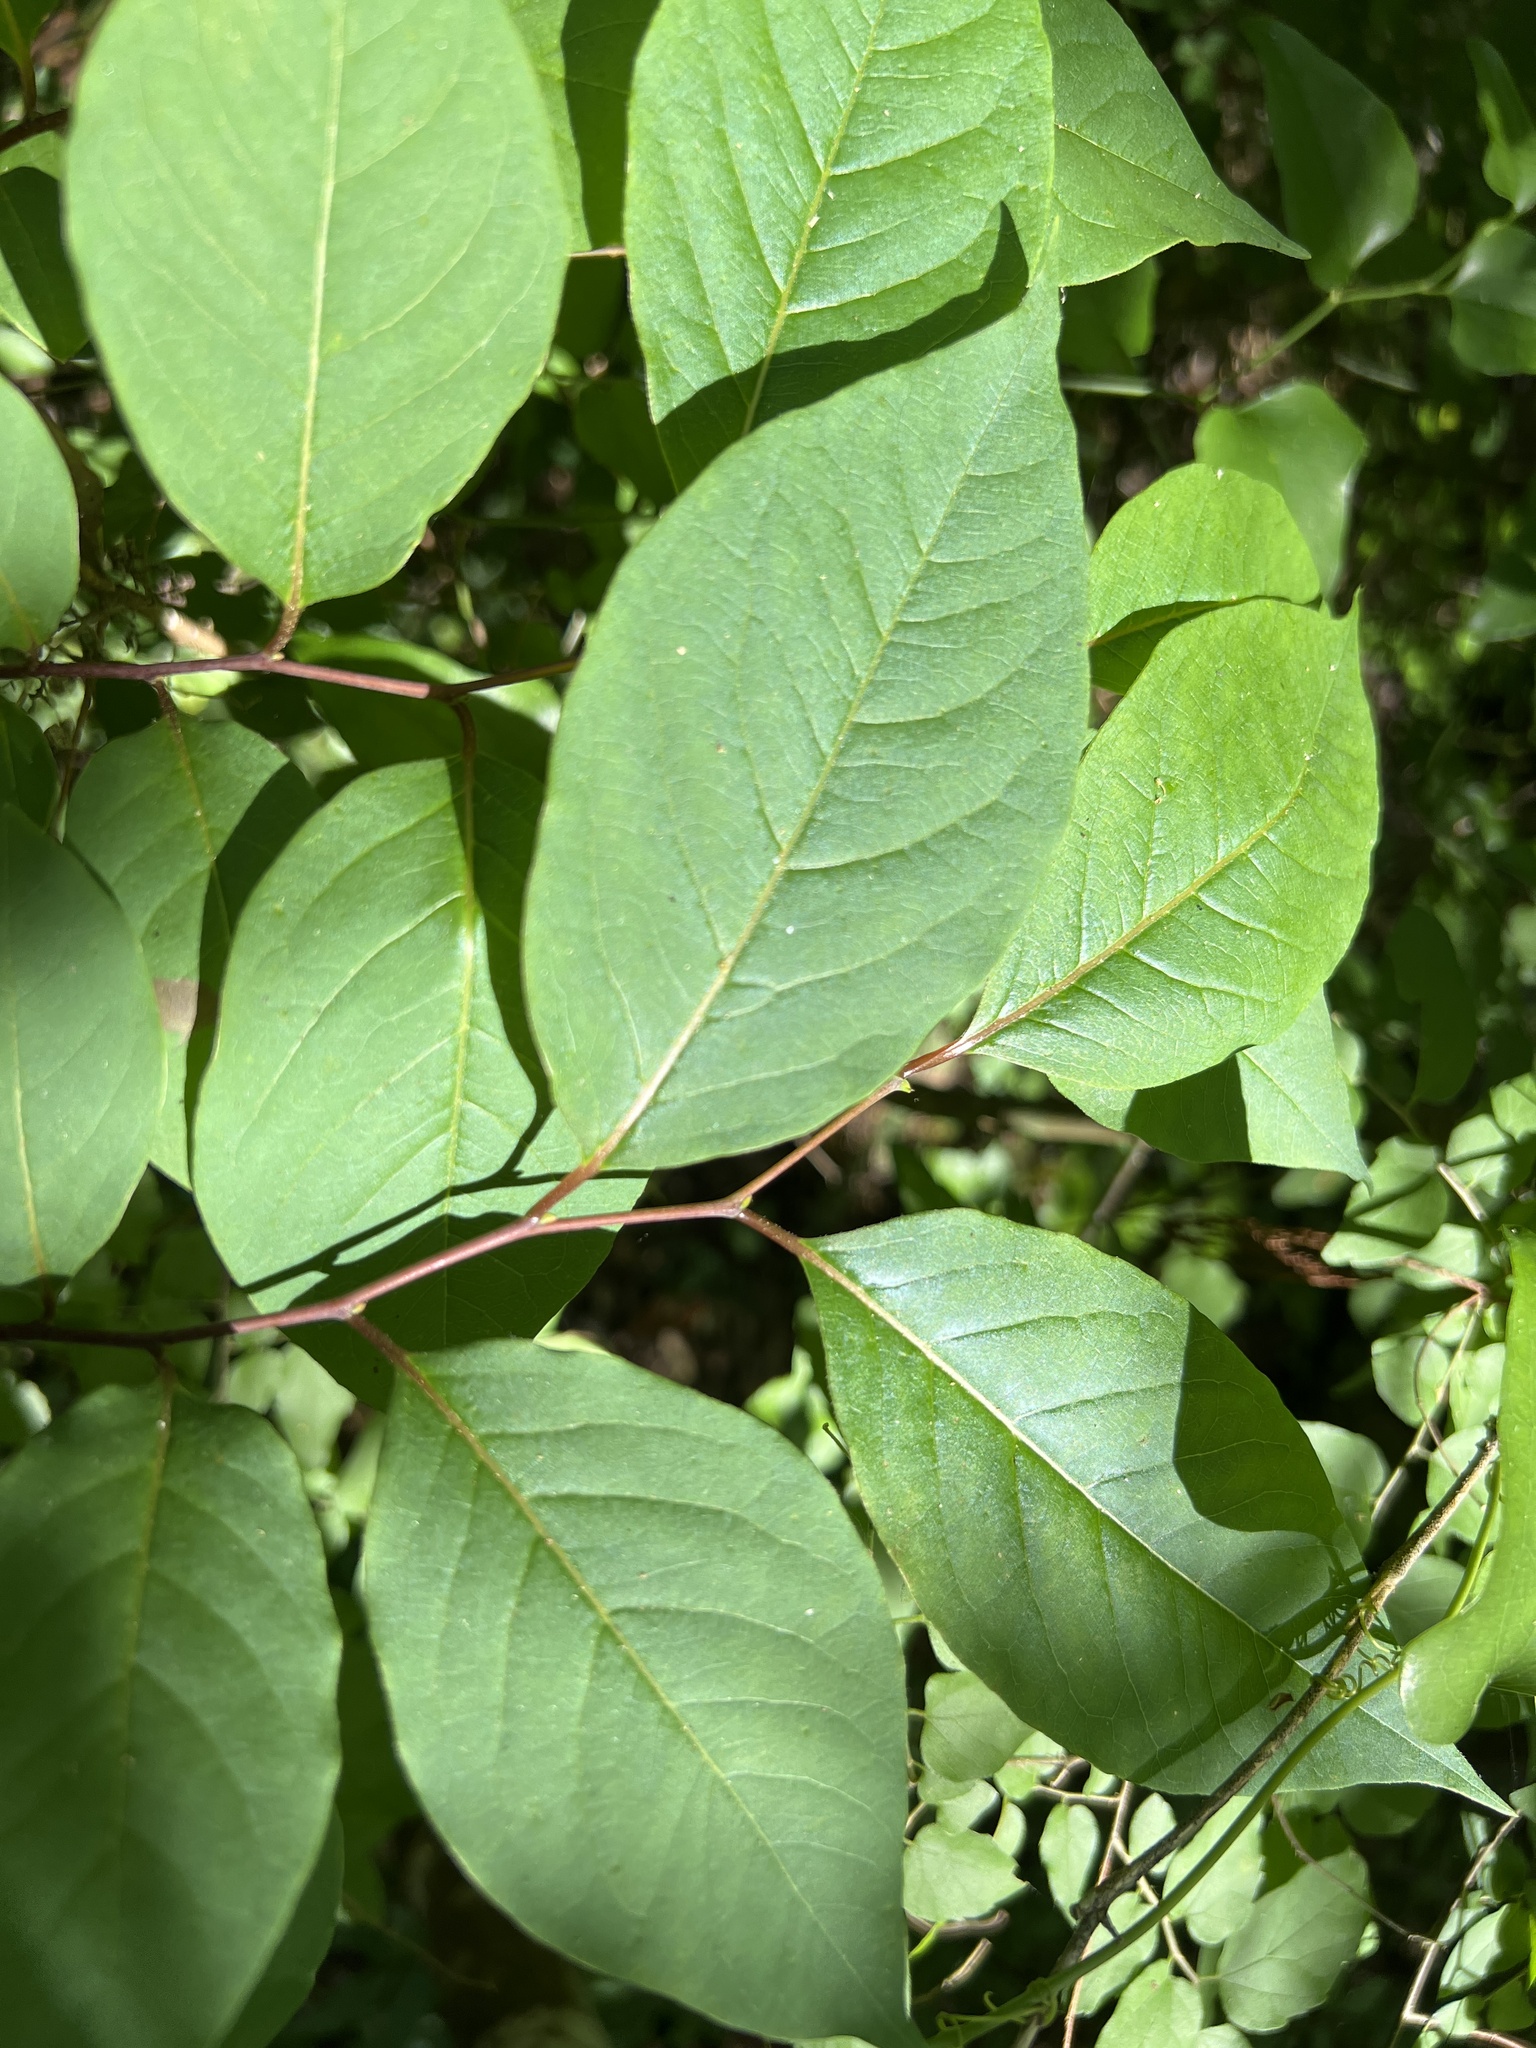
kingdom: Plantae
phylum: Tracheophyta
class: Magnoliopsida
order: Ericales
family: Ebenaceae
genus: Diospyros
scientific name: Diospyros virginiana
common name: Persimmon
